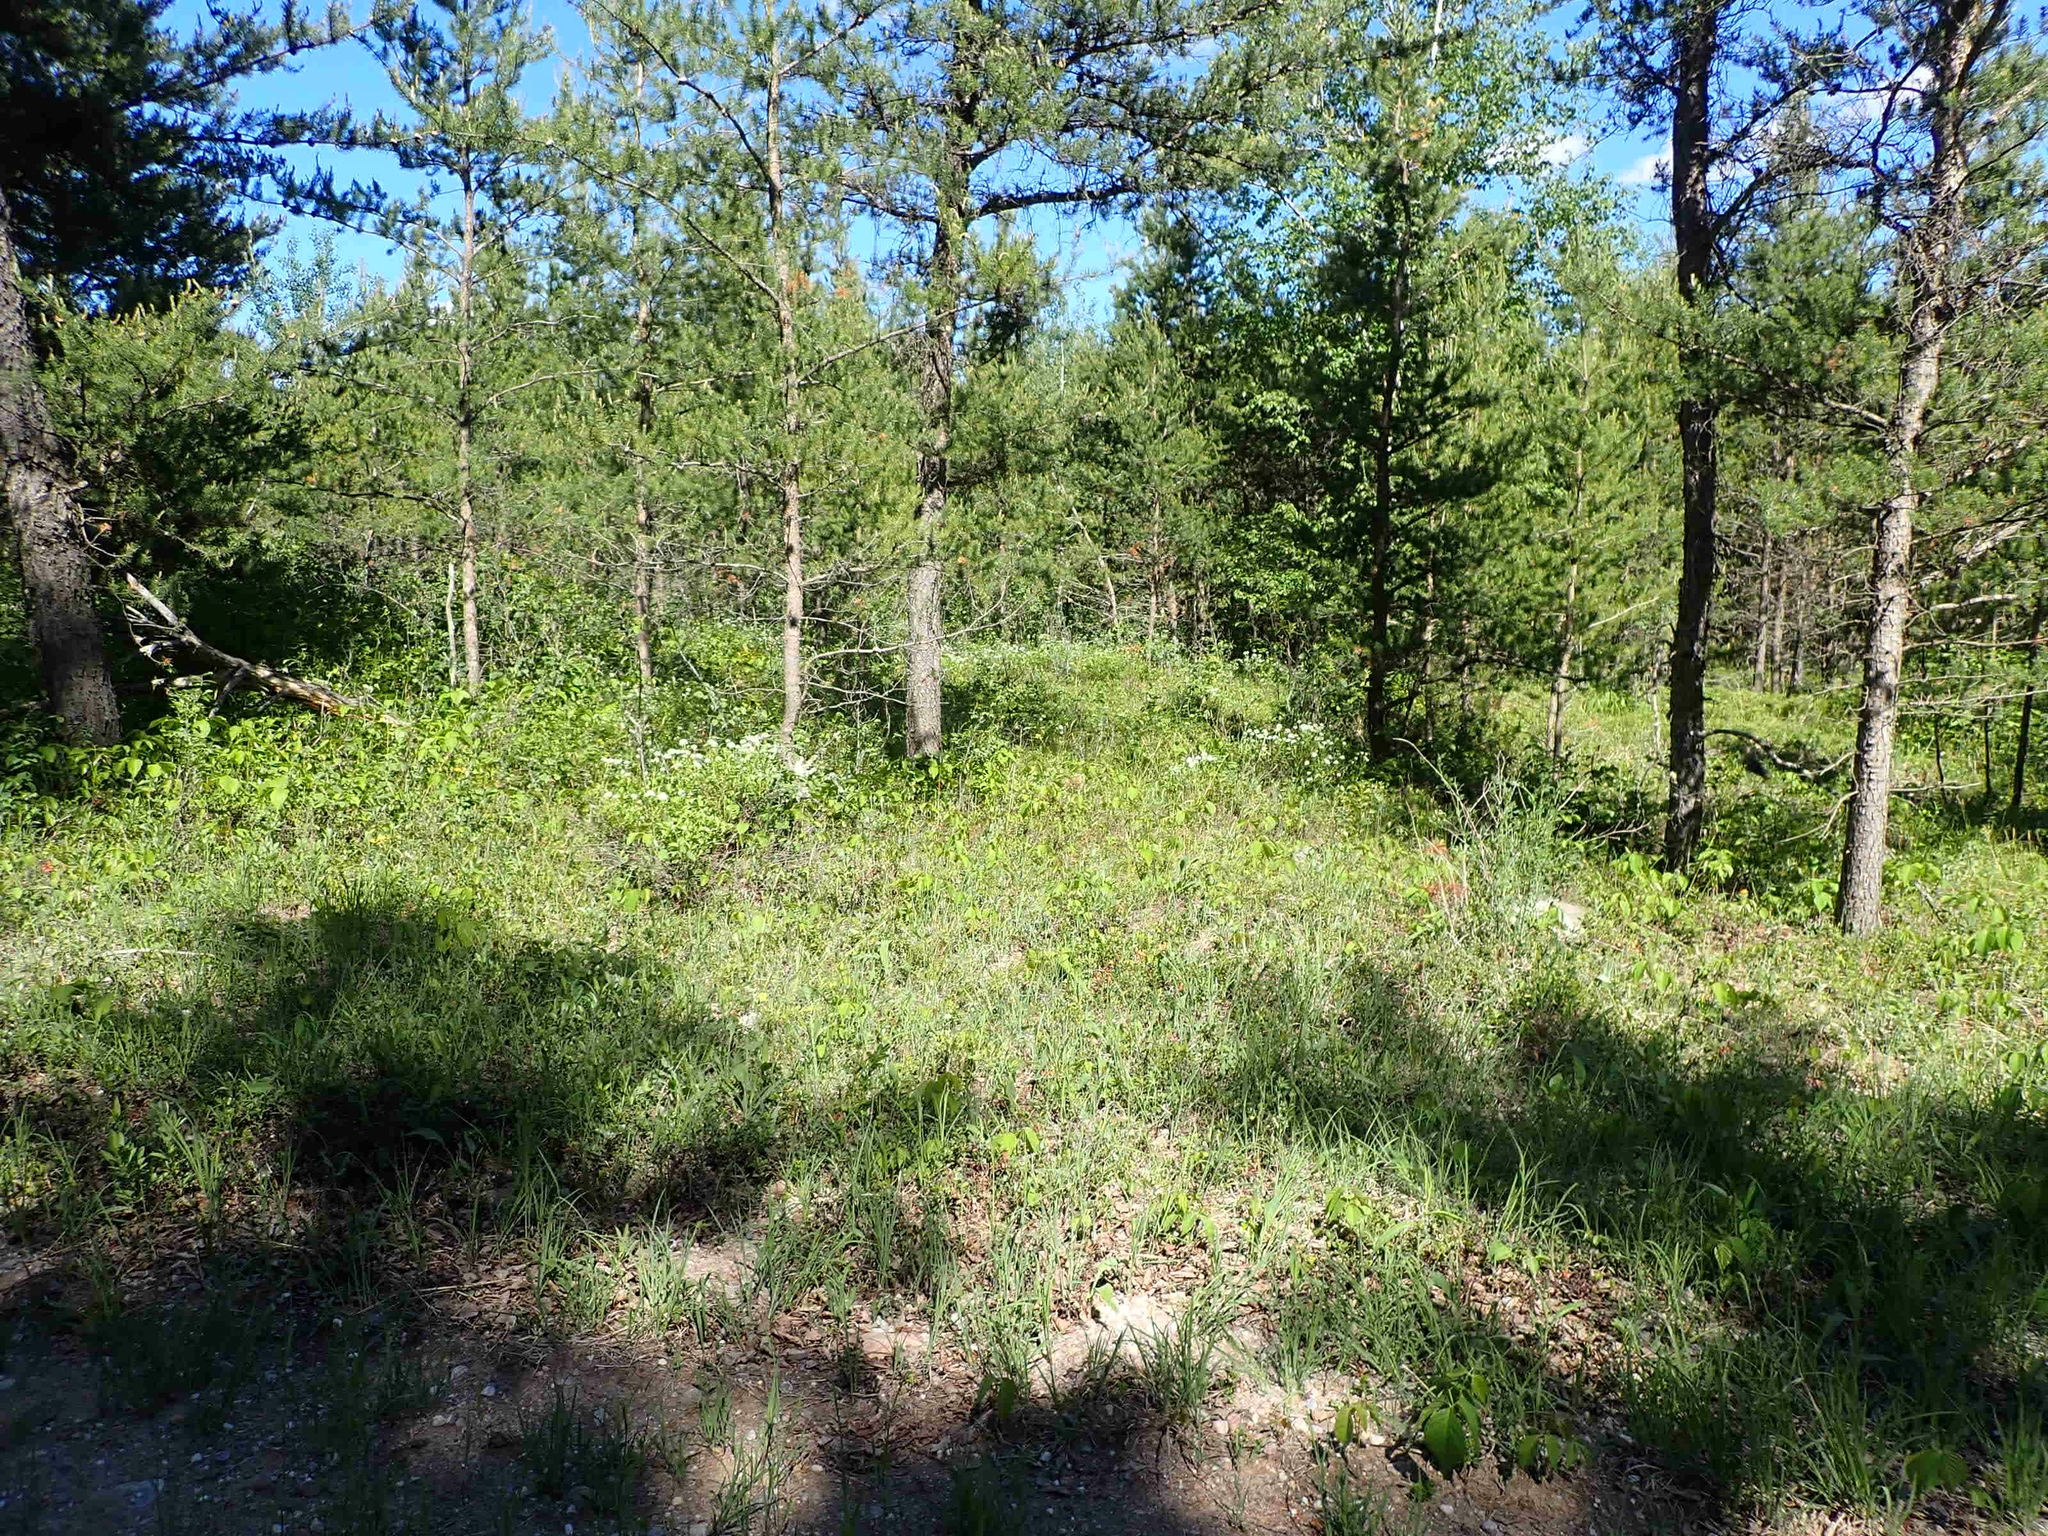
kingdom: Plantae
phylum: Tracheophyta
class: Magnoliopsida
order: Rosales
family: Rhamnaceae
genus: Ceanothus
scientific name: Ceanothus herbaceus
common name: Inland ceanothus
